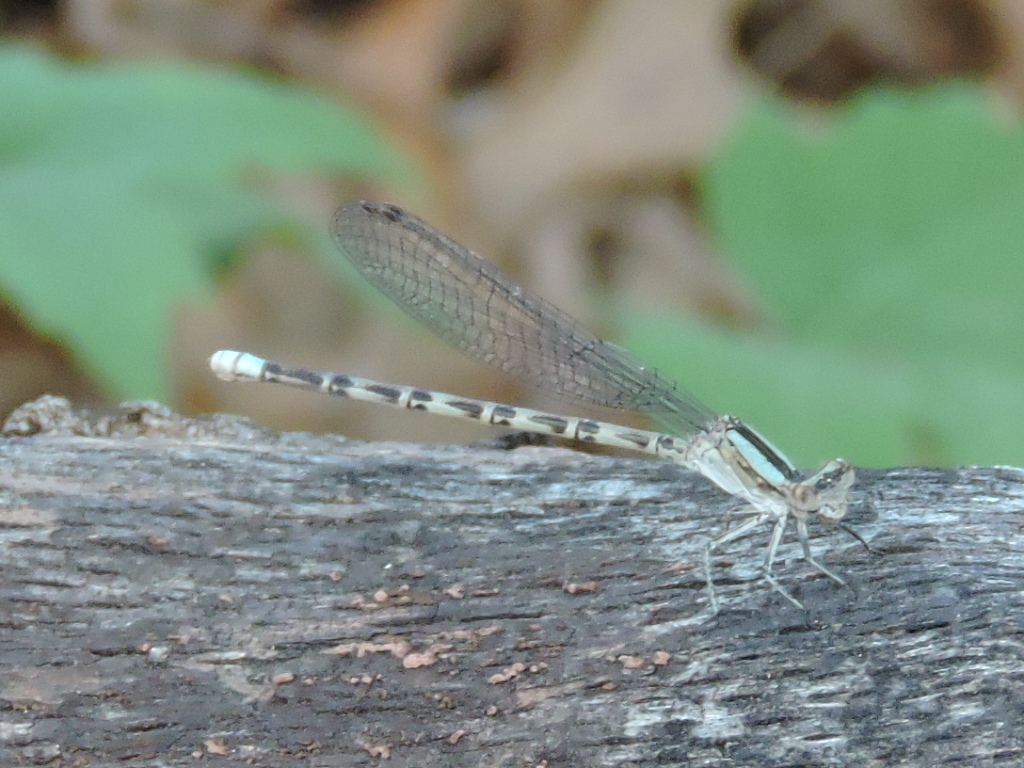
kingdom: Animalia
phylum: Arthropoda
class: Insecta
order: Odonata
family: Coenagrionidae
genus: Argia
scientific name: Argia immunda
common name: Kiowa dancer
